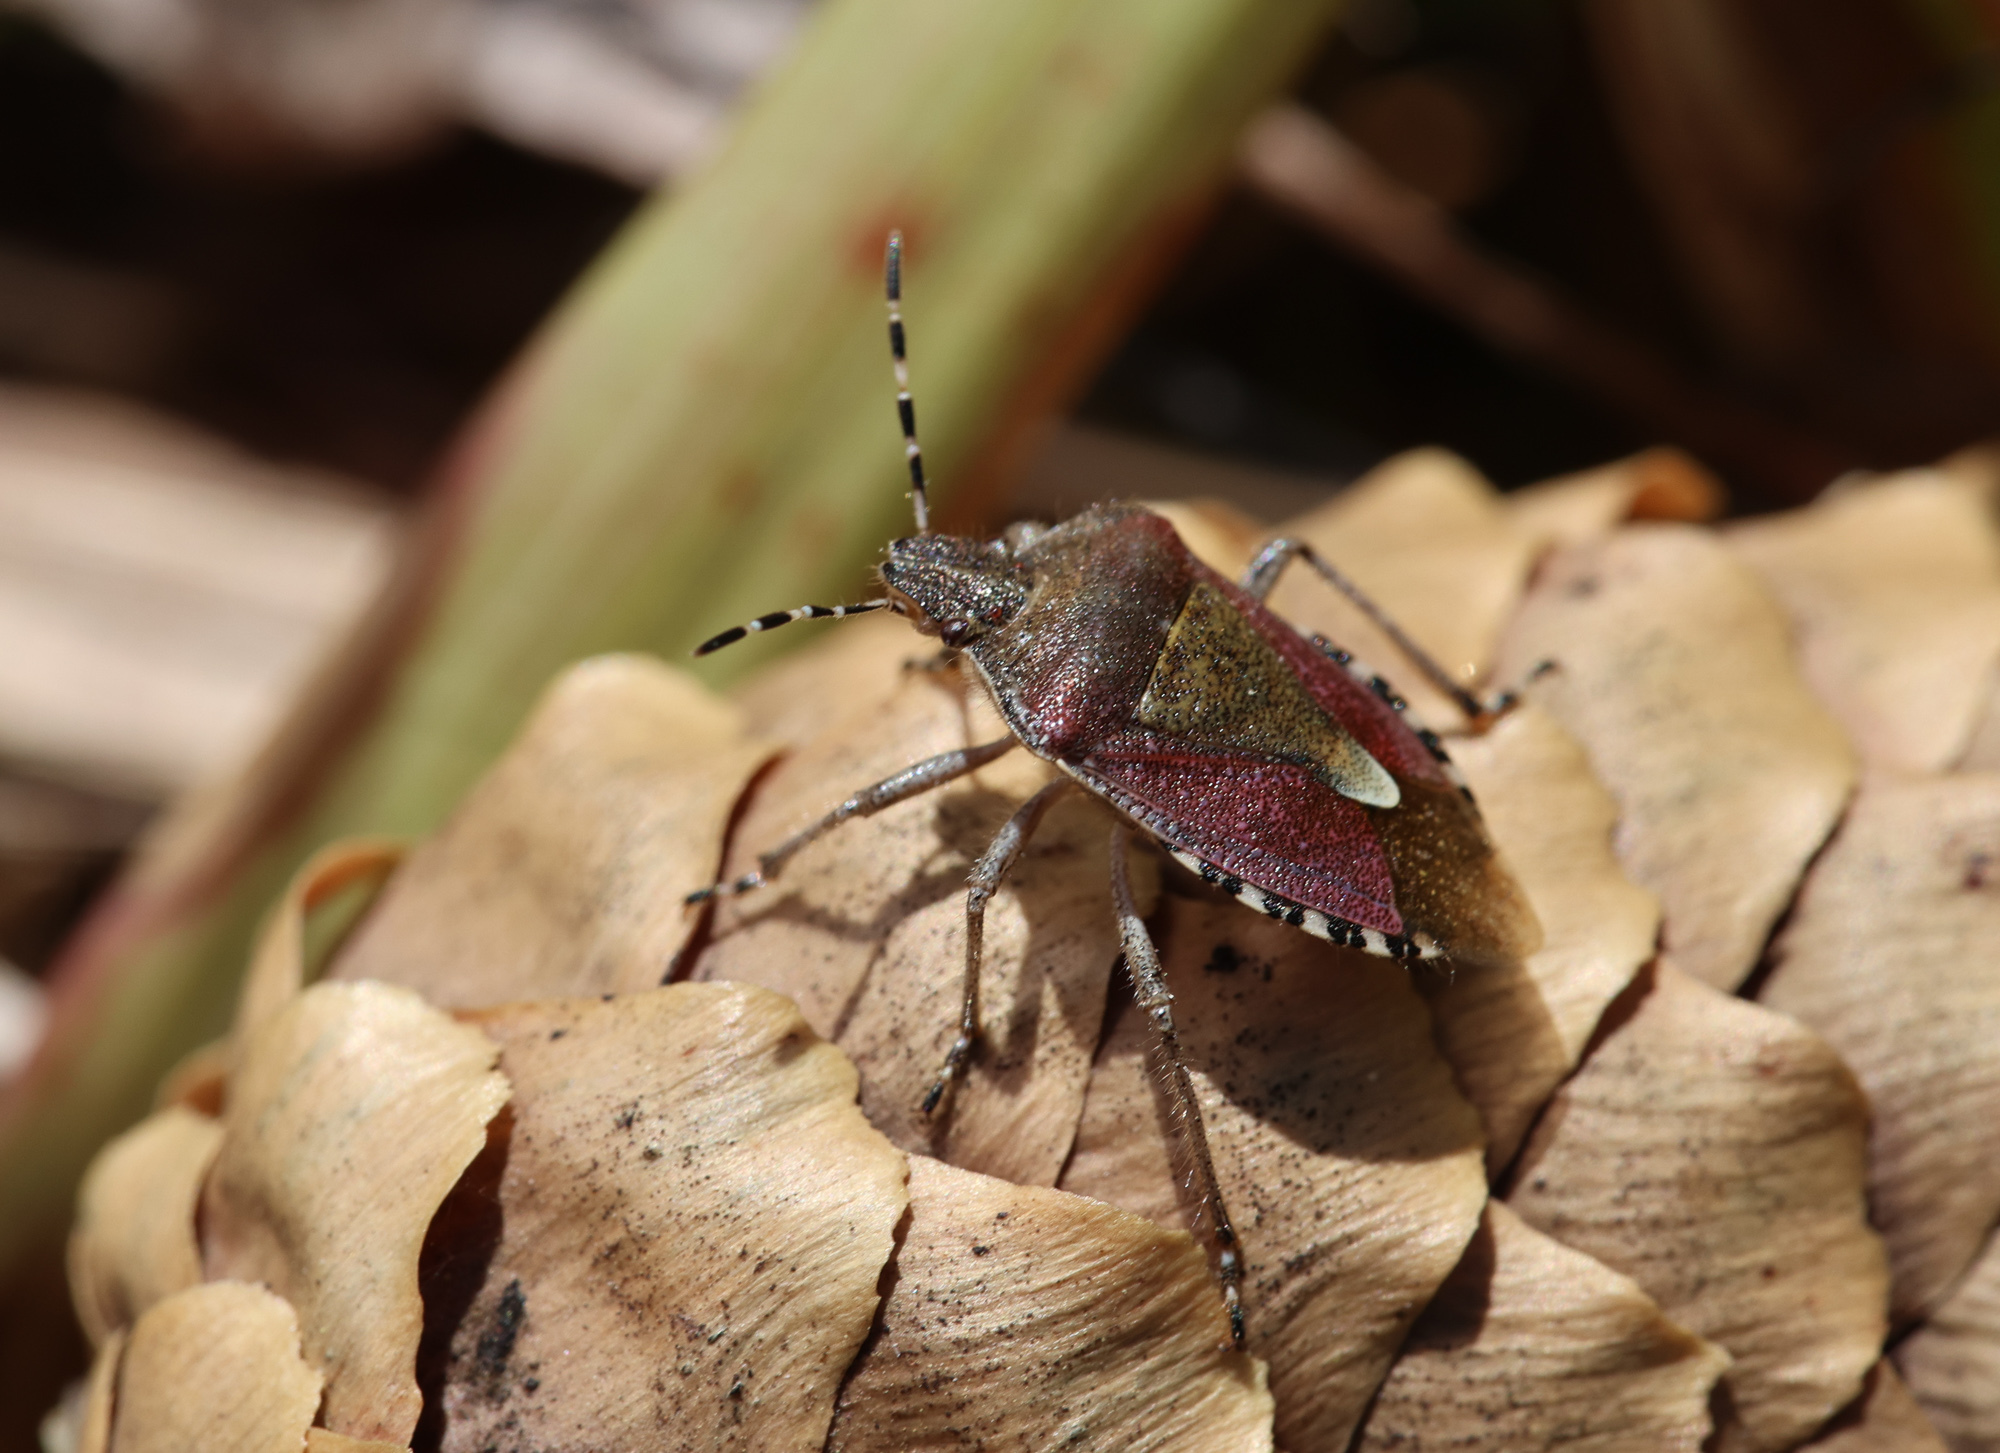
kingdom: Animalia
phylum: Arthropoda
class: Insecta
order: Hemiptera
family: Pentatomidae
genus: Dolycoris
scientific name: Dolycoris baccarum
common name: Sloe bug
